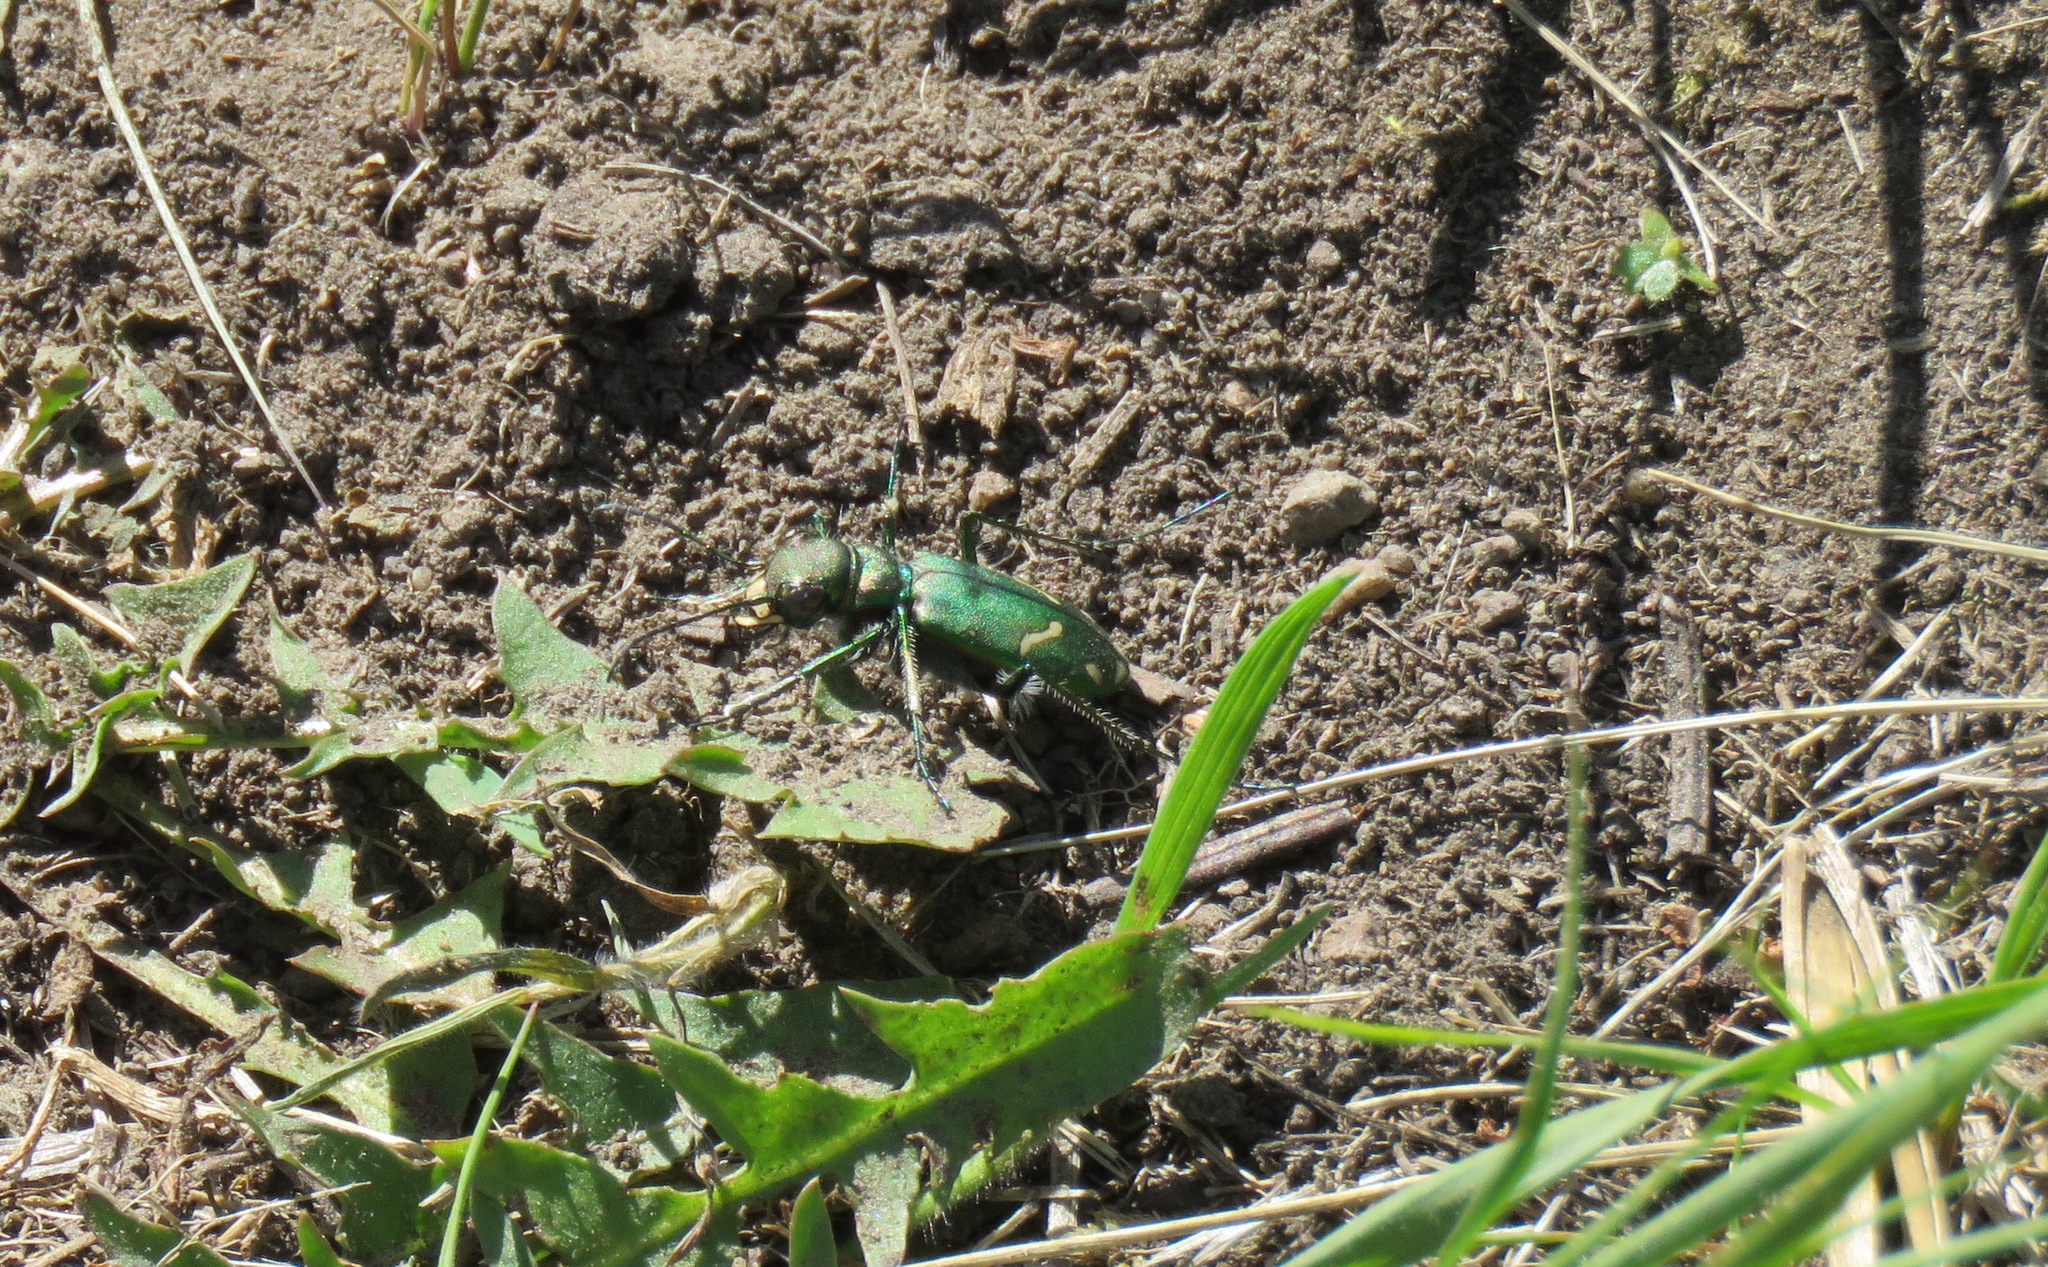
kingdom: Animalia
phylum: Arthropoda
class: Insecta
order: Coleoptera
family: Carabidae
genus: Cicindela
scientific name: Cicindela purpurea
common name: Cow path tiger beetle
